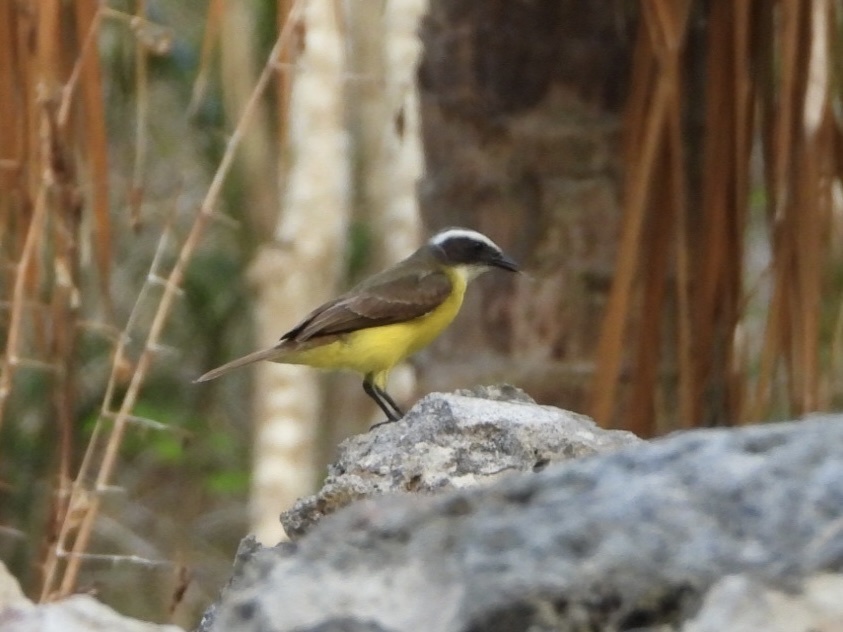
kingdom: Animalia
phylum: Chordata
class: Aves
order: Passeriformes
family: Tyrannidae
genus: Myiozetetes
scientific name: Myiozetetes similis
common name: Social flycatcher
